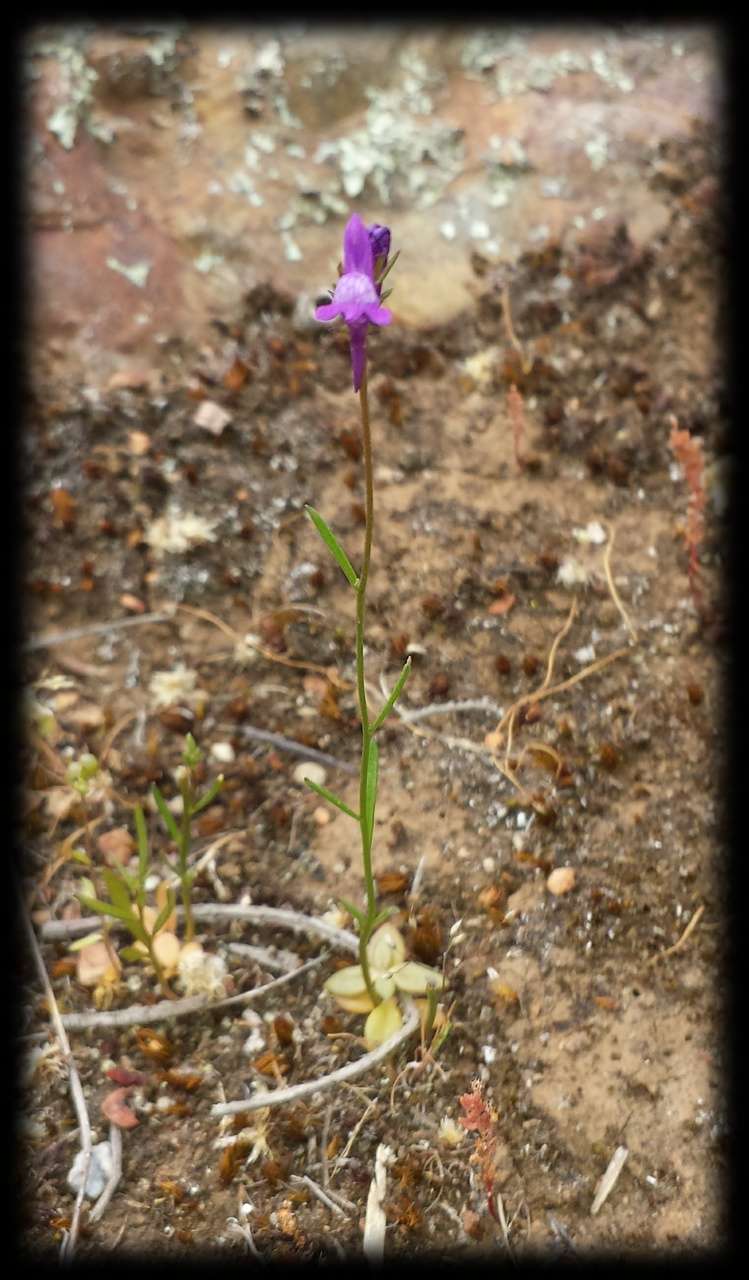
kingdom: Plantae
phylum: Tracheophyta
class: Magnoliopsida
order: Lamiales
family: Plantaginaceae
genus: Linaria
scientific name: Linaria pelisseriana
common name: Jersey toadflax
